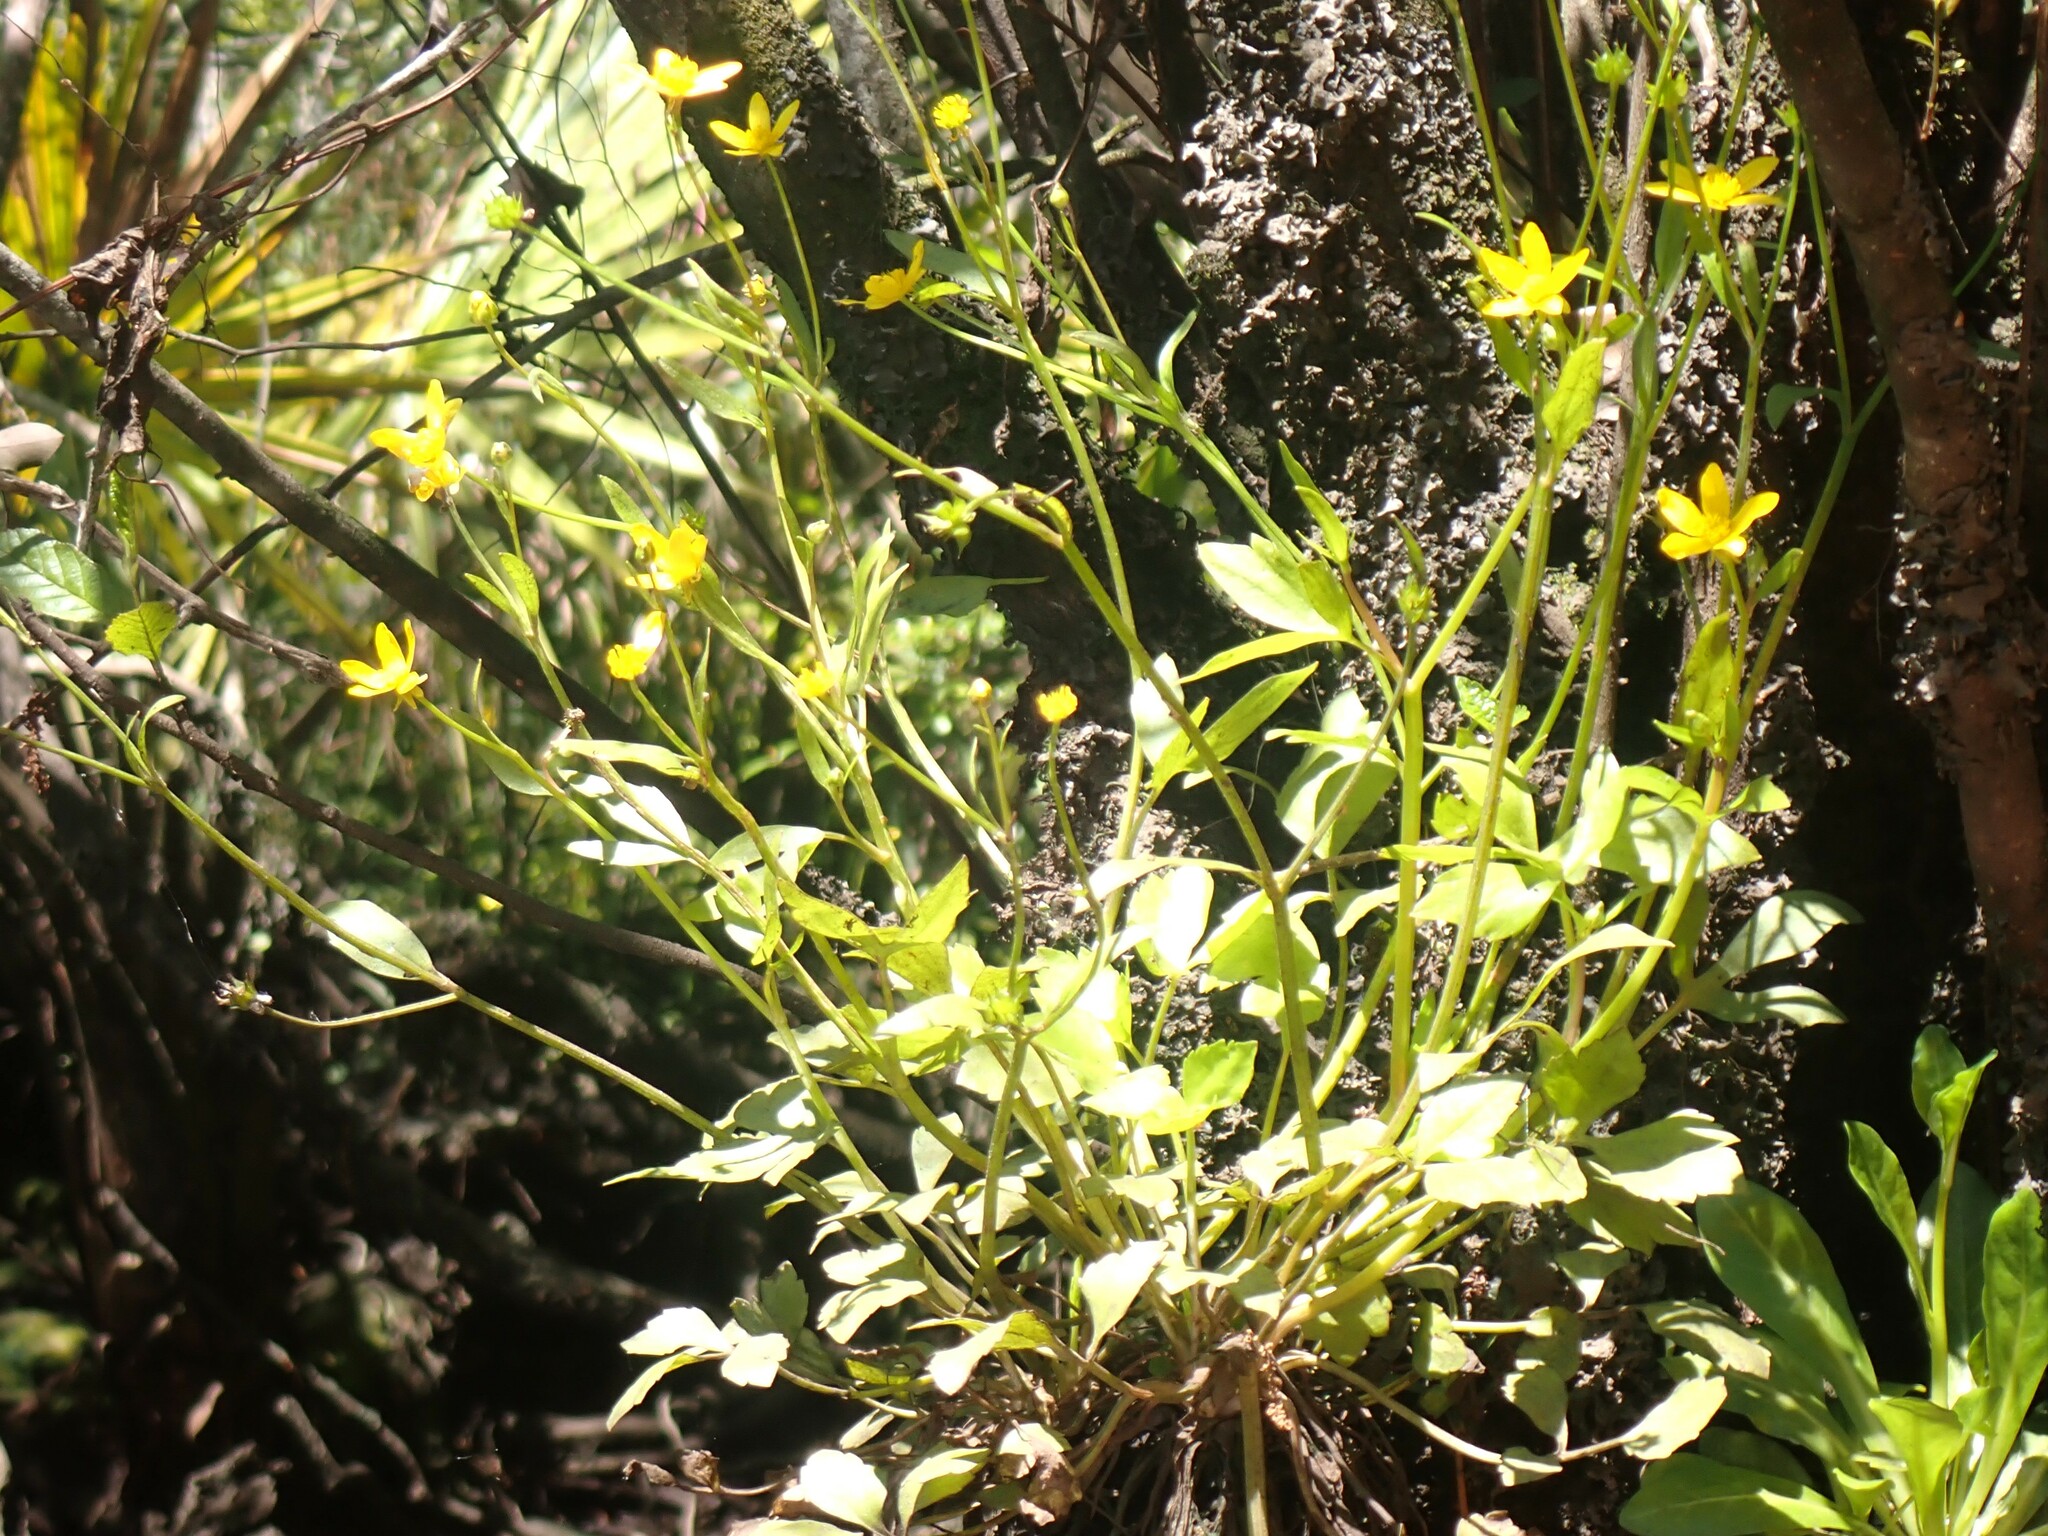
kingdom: Plantae
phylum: Tracheophyta
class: Magnoliopsida
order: Ranunculales
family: Ranunculaceae
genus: Ranunculus
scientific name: Ranunculus hispidus
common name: Bristly buttercup
